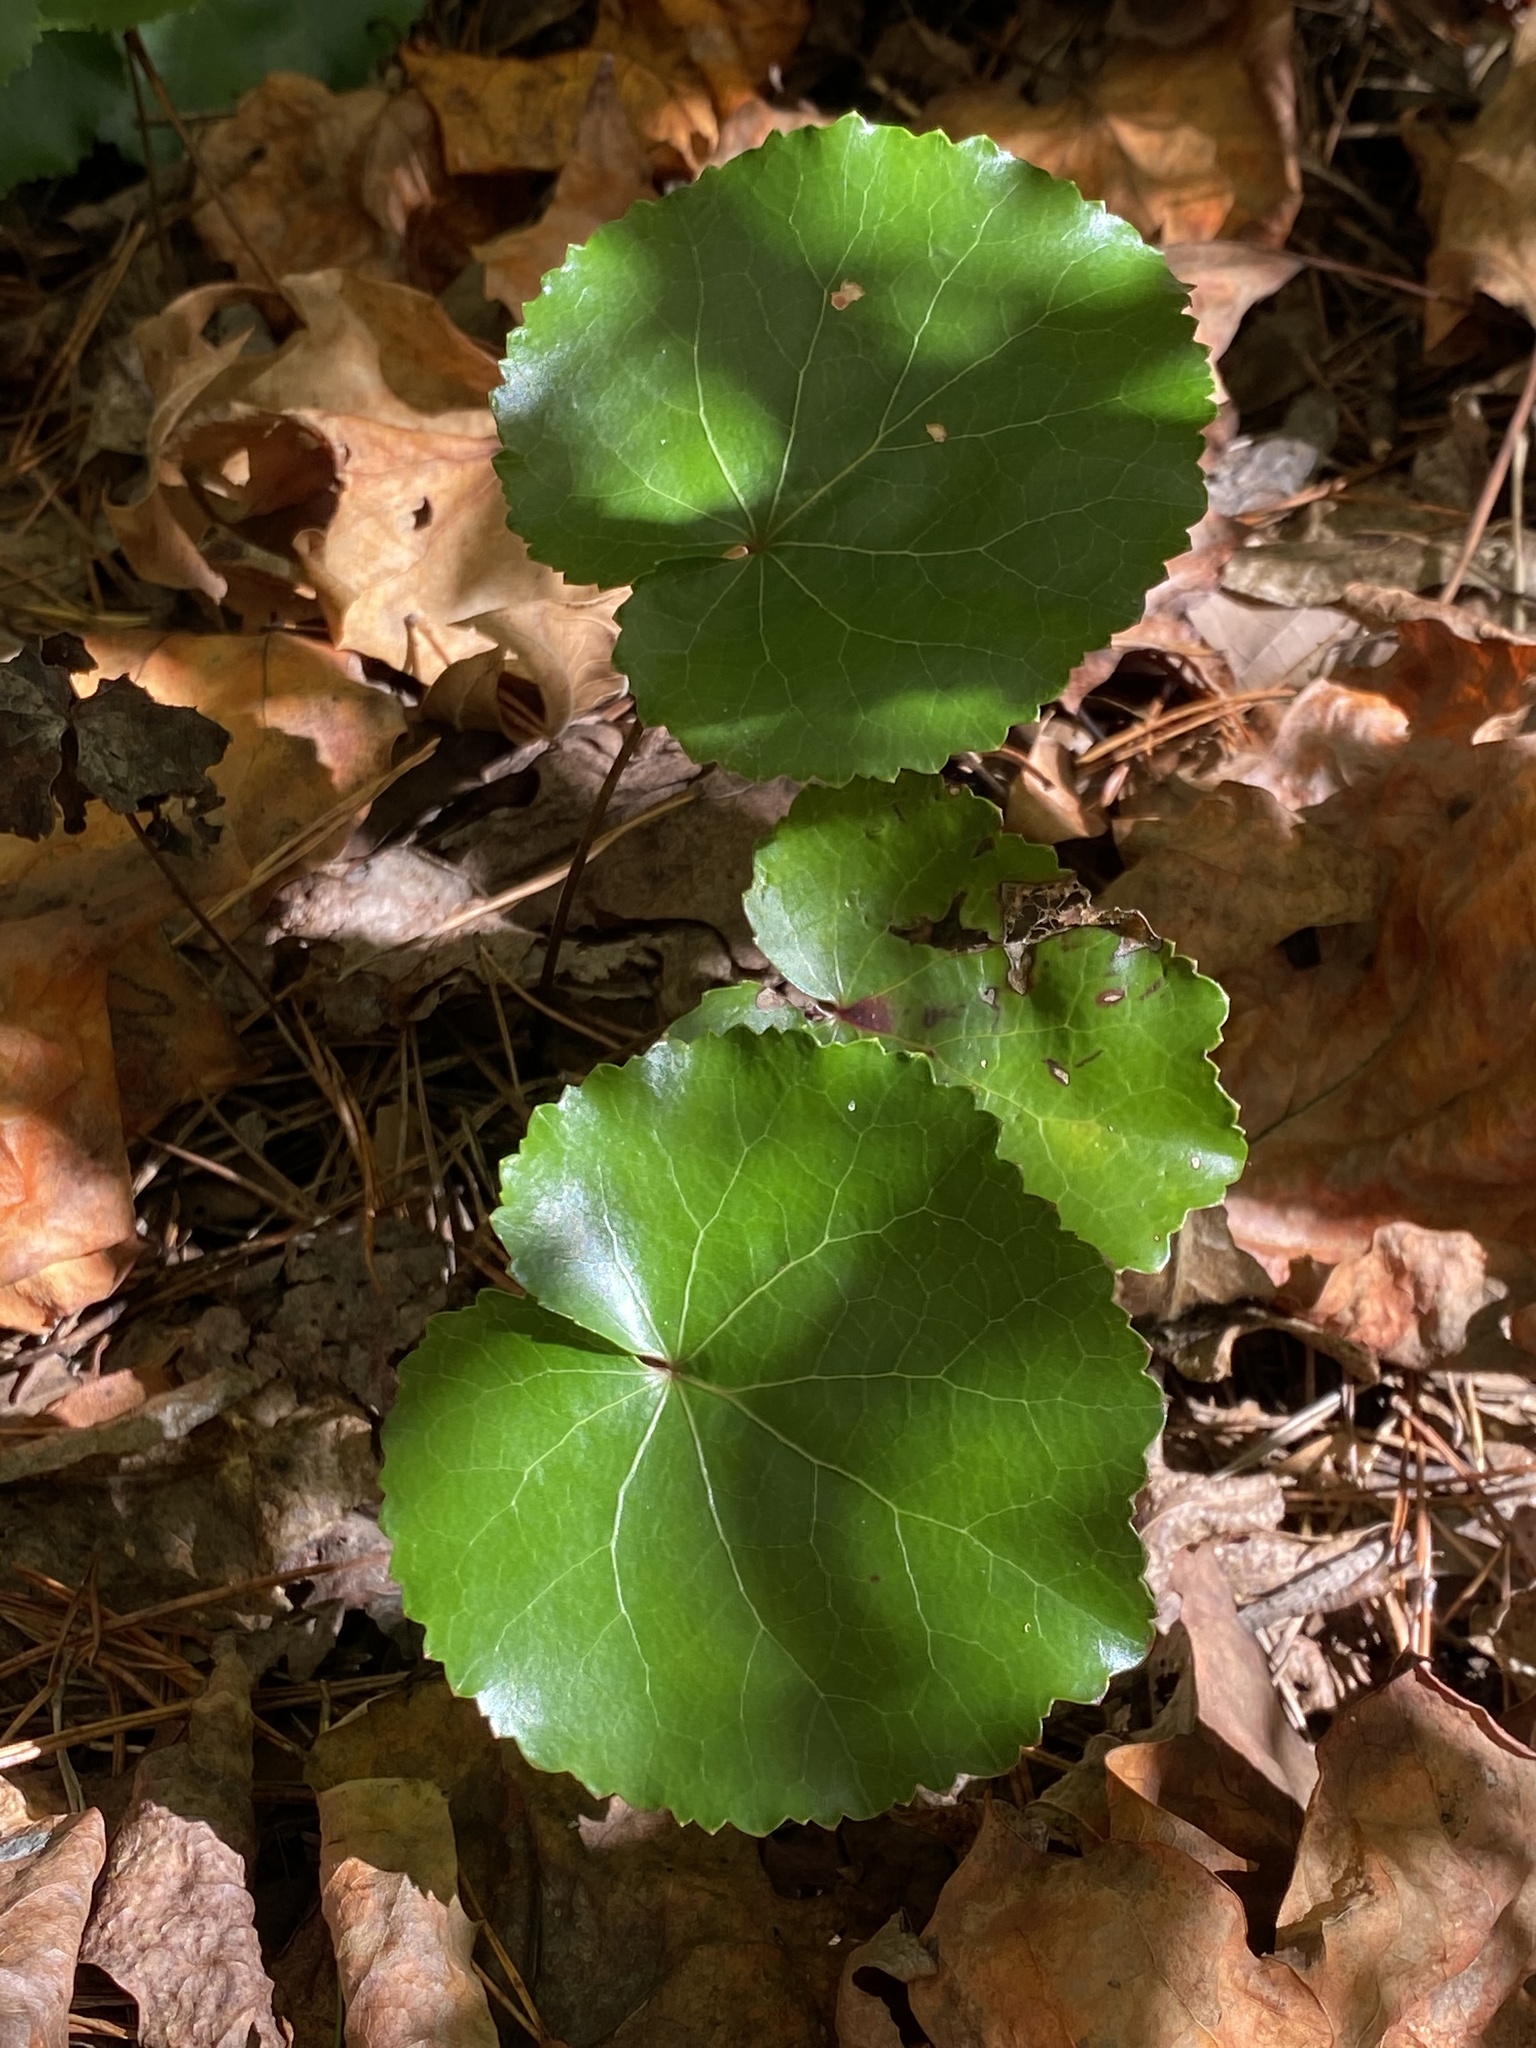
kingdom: Plantae
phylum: Tracheophyta
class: Magnoliopsida
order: Ericales
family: Diapensiaceae
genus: Galax
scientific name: Galax urceolata
